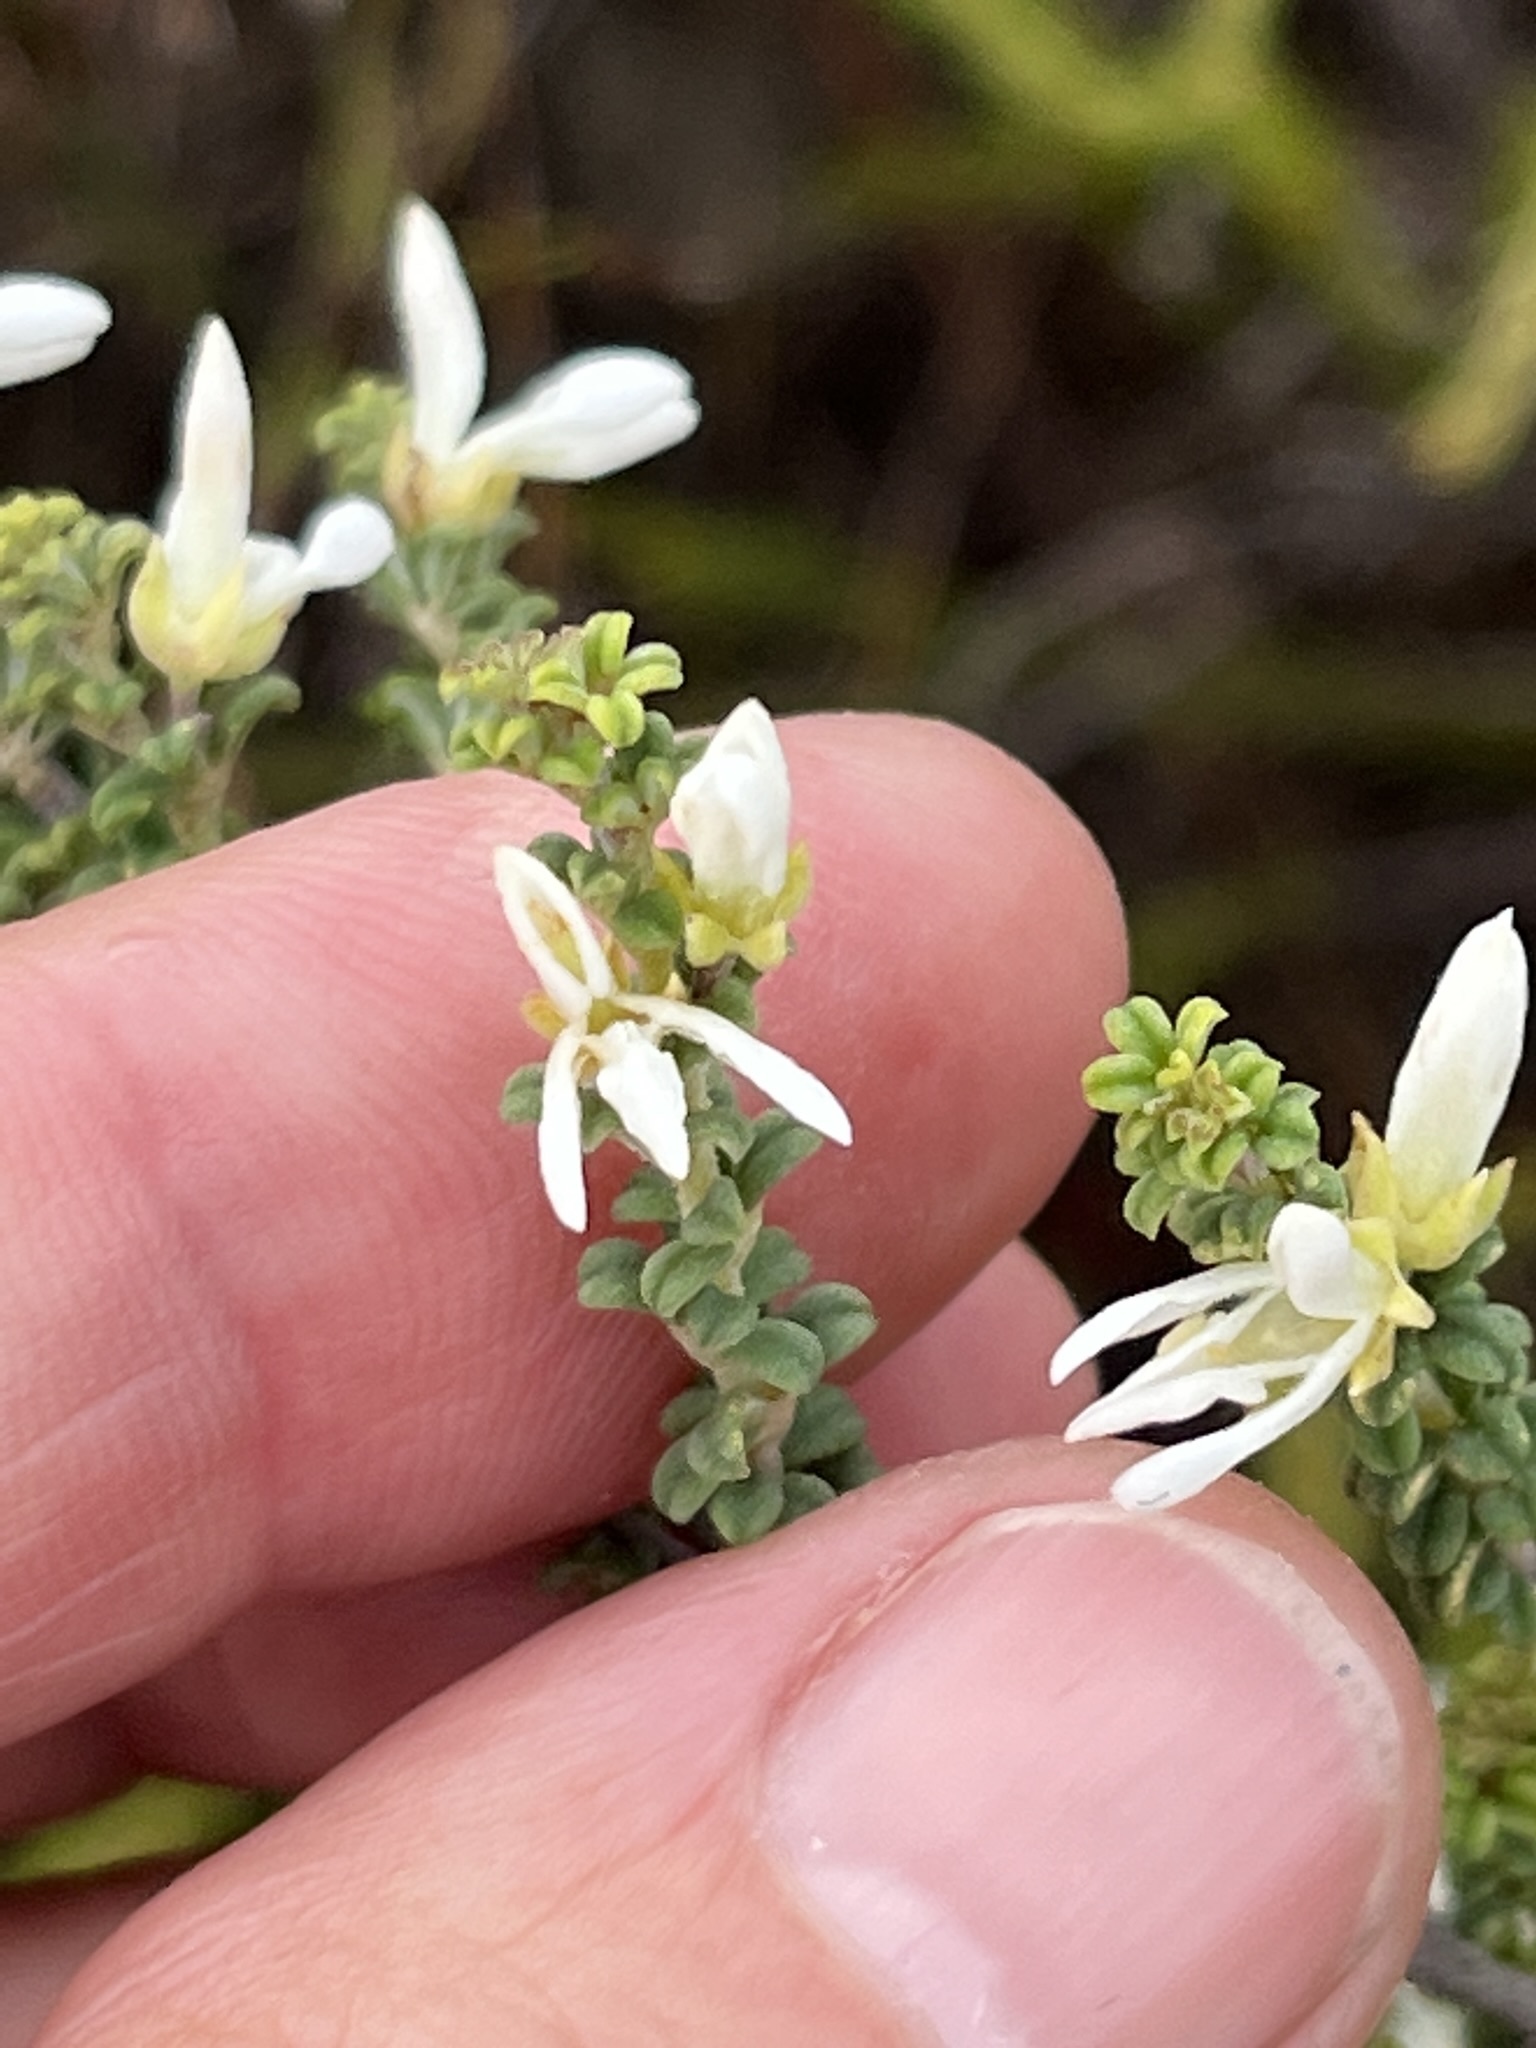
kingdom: Plantae
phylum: Tracheophyta
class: Magnoliopsida
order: Fabales
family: Fabaceae
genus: Indigofera
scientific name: Indigofera hamulosa
